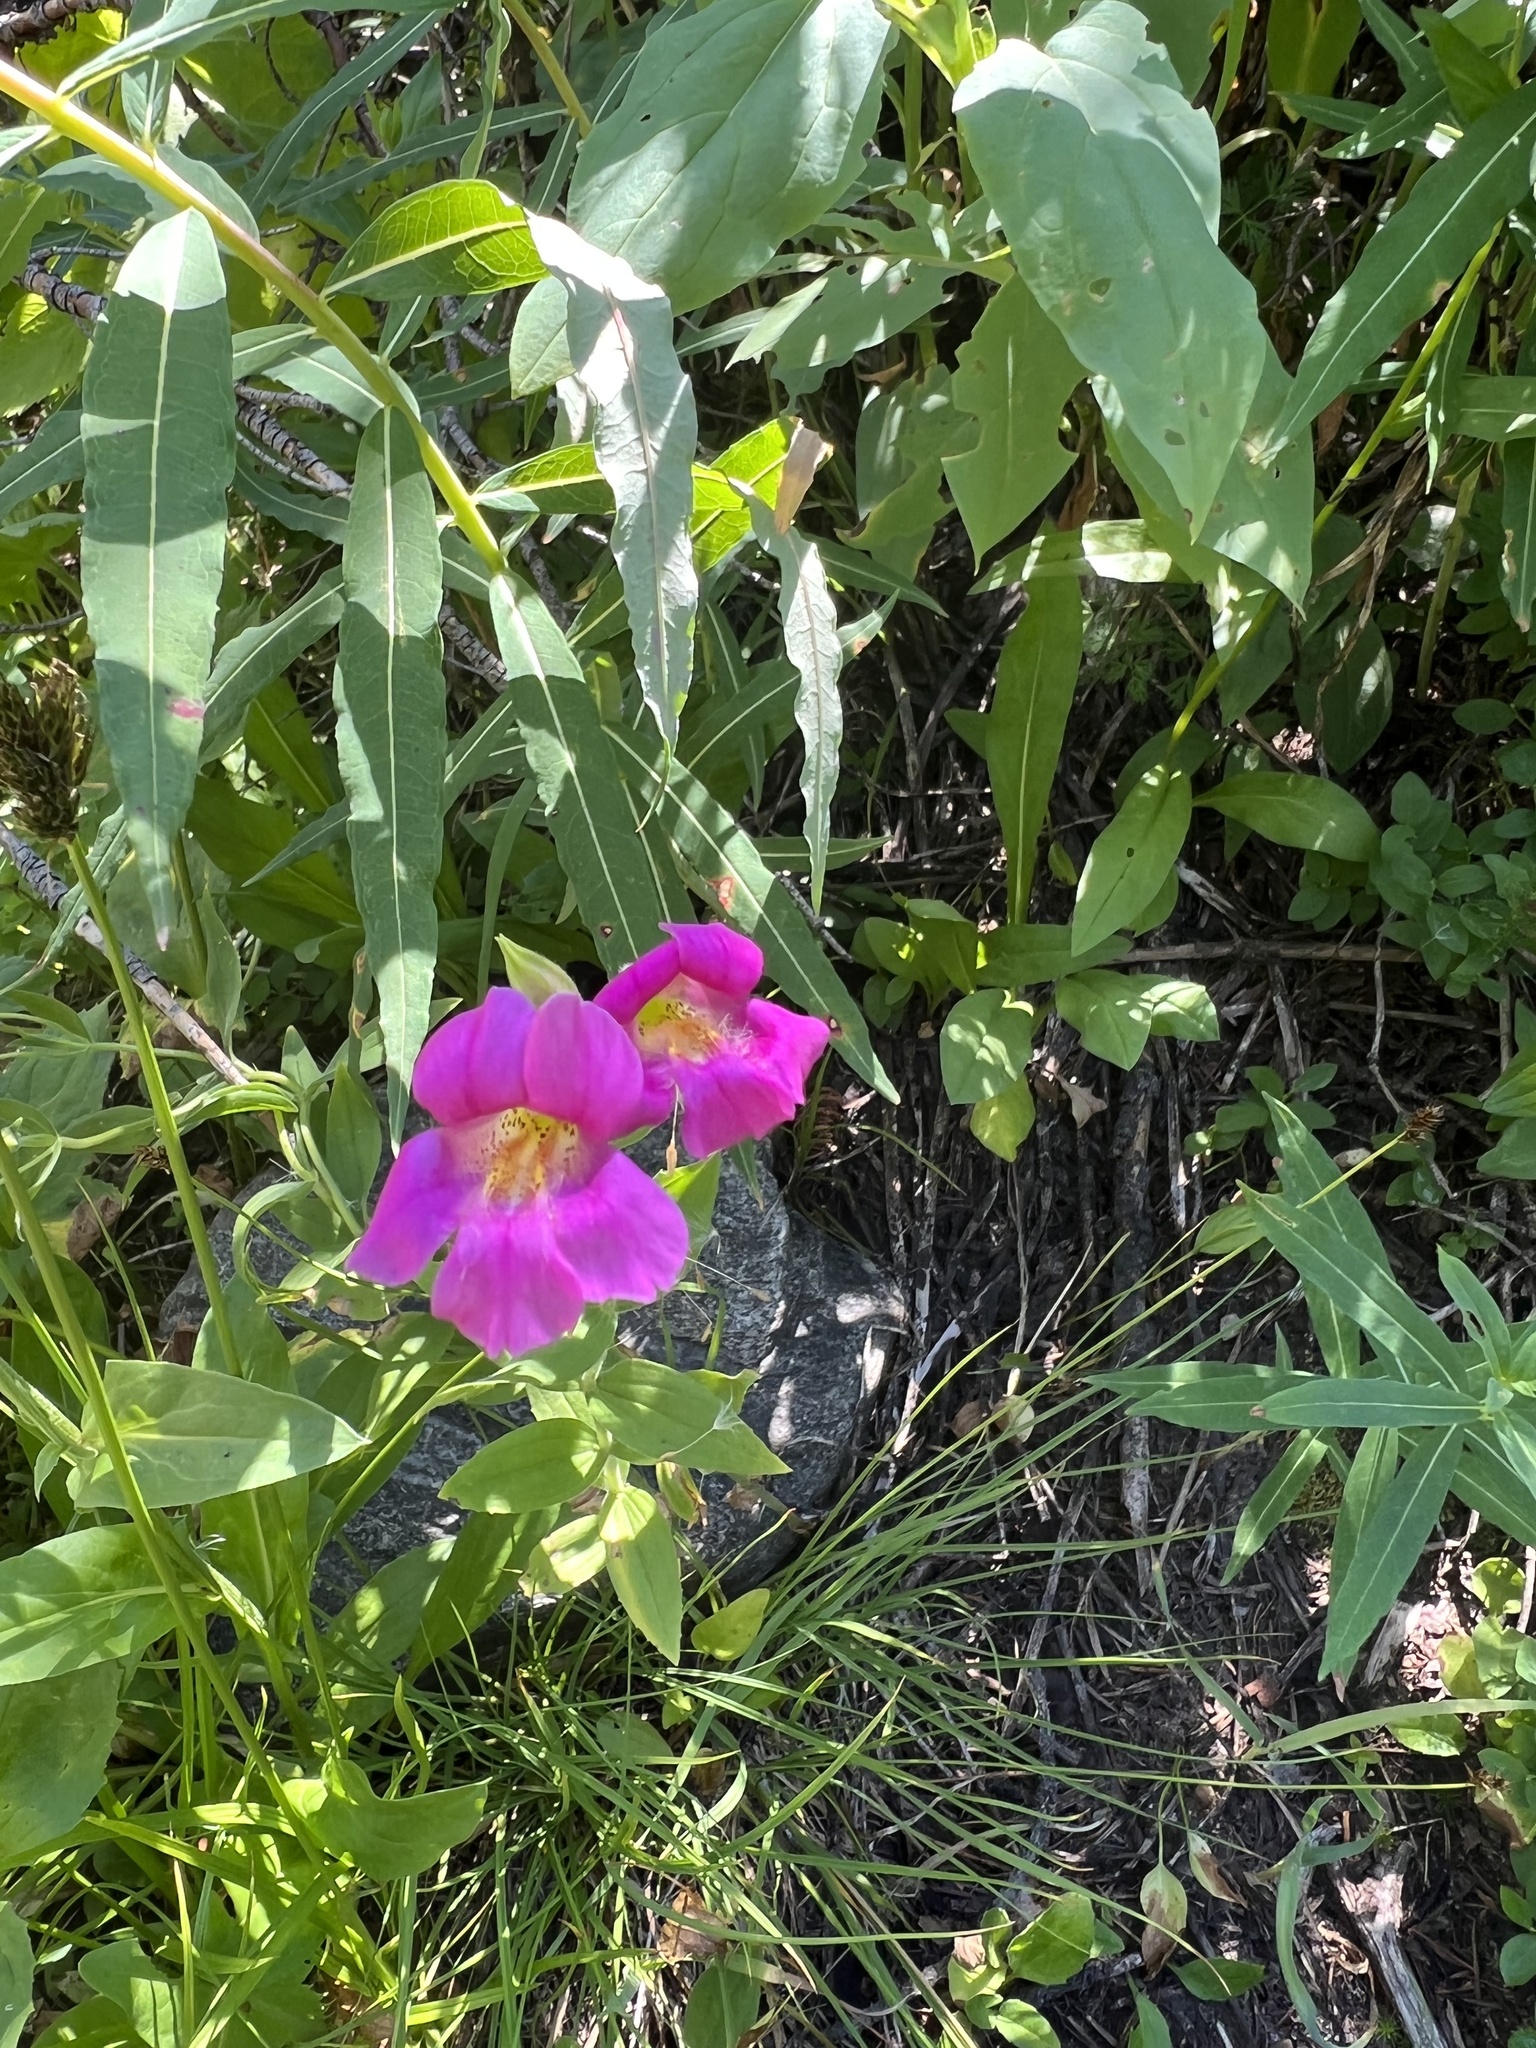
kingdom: Plantae
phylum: Tracheophyta
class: Magnoliopsida
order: Lamiales
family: Phrymaceae
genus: Erythranthe
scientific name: Erythranthe lewisii
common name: Lewis's monkey-flower
